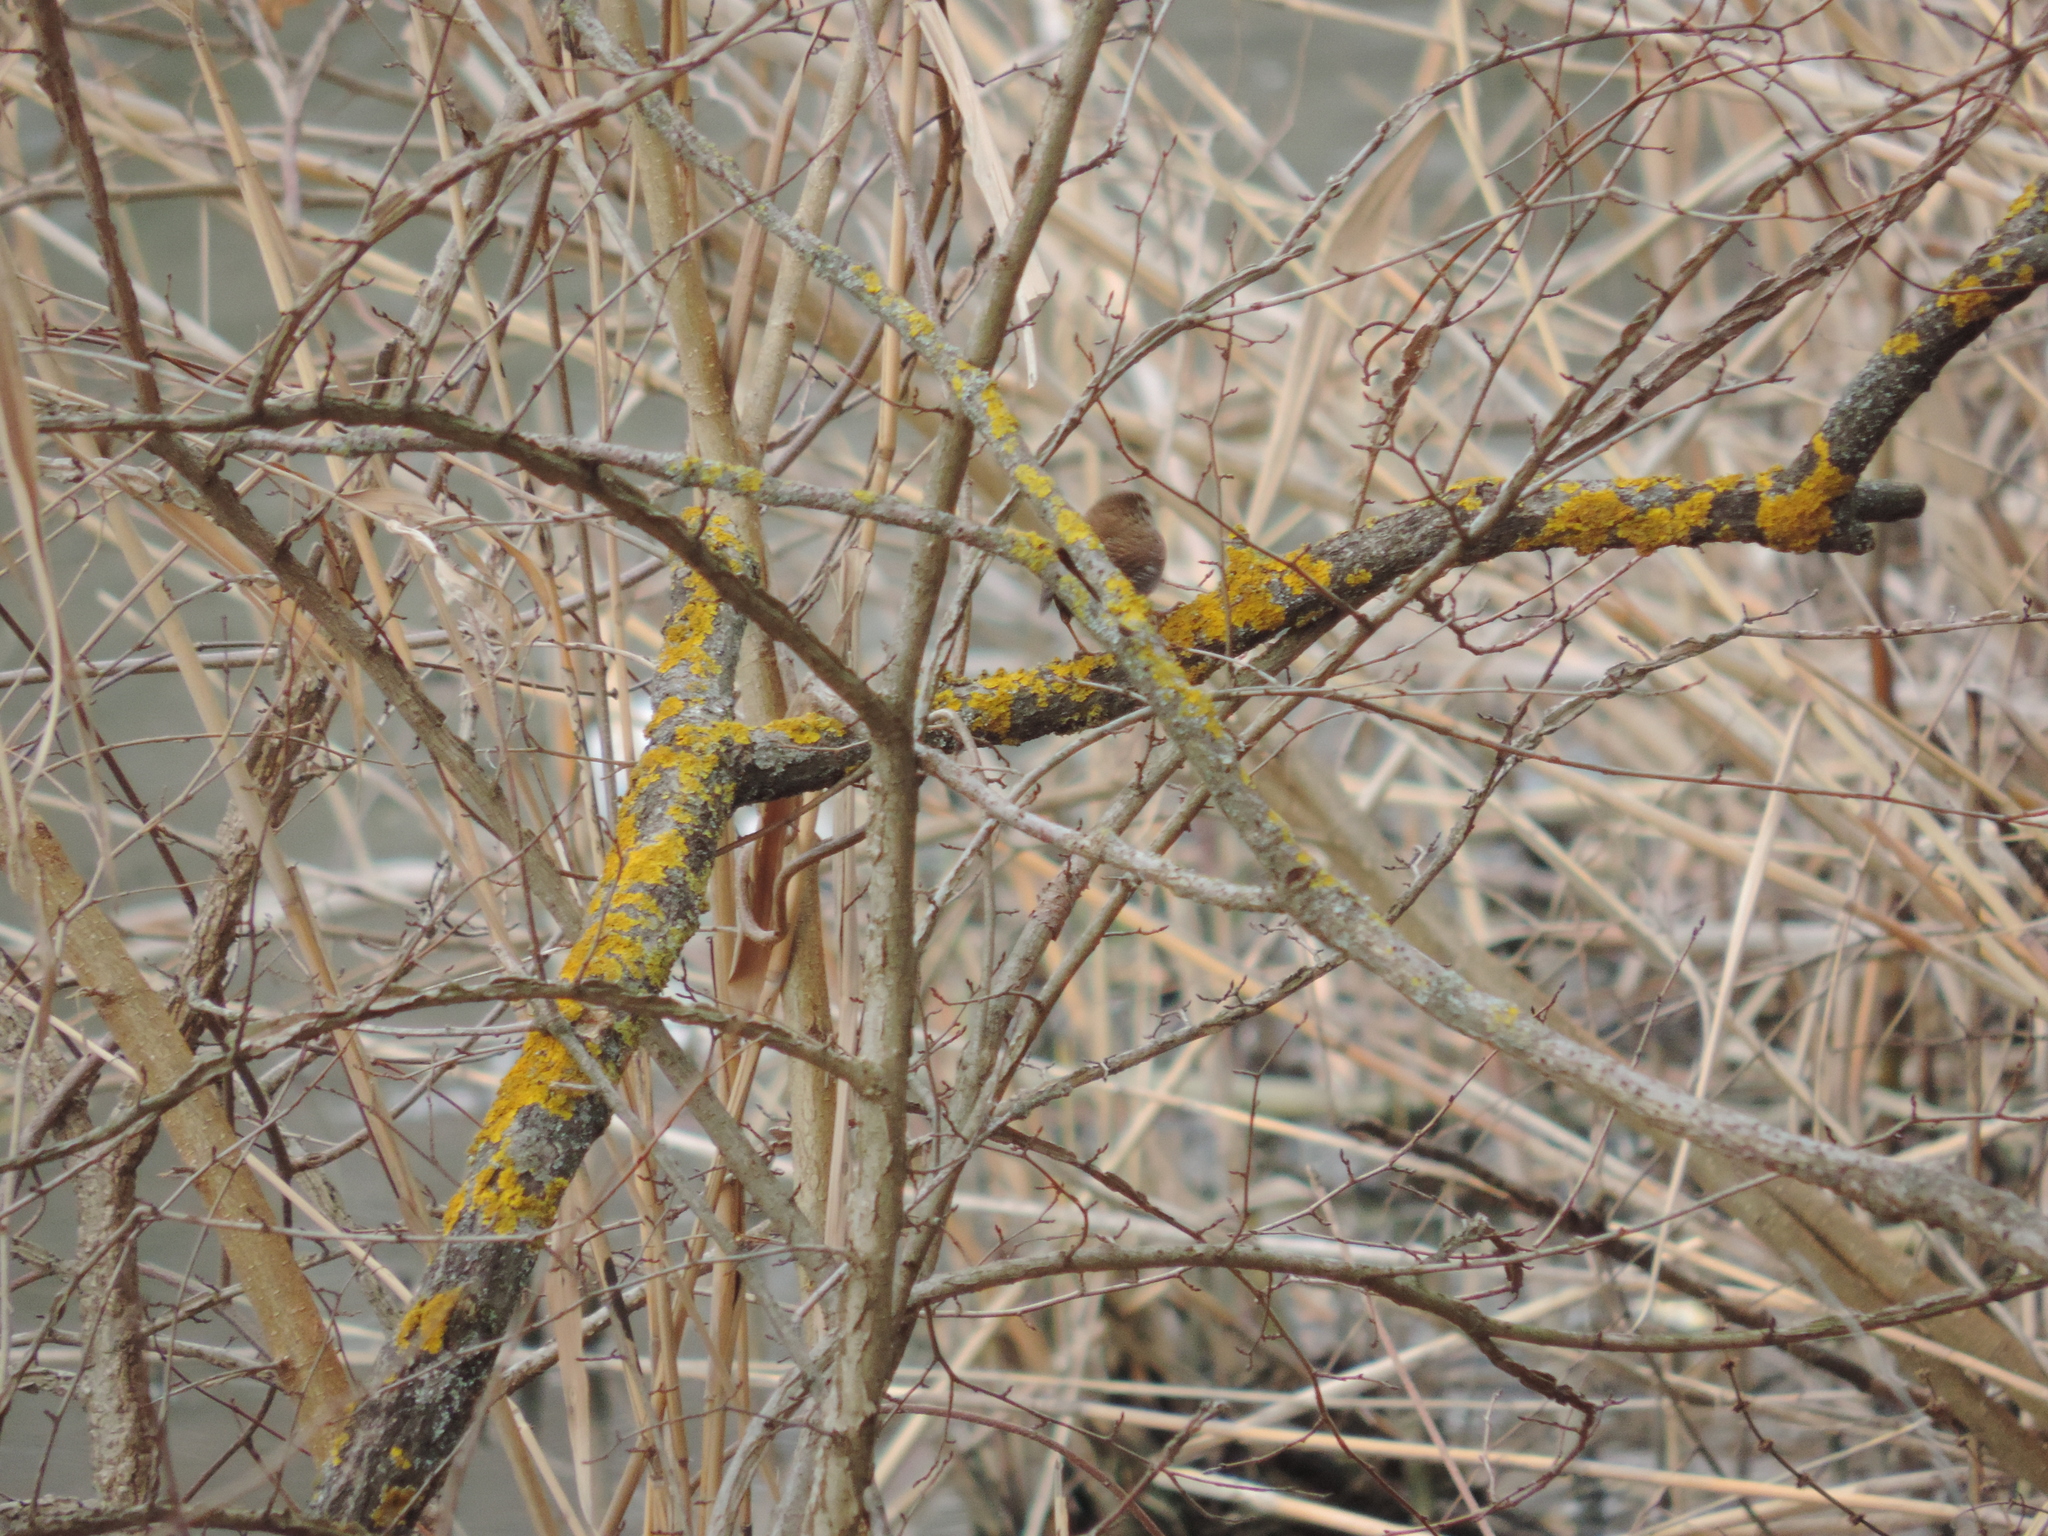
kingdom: Animalia
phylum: Chordata
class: Aves
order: Passeriformes
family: Troglodytidae
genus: Troglodytes
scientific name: Troglodytes troglodytes
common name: Eurasian wren
